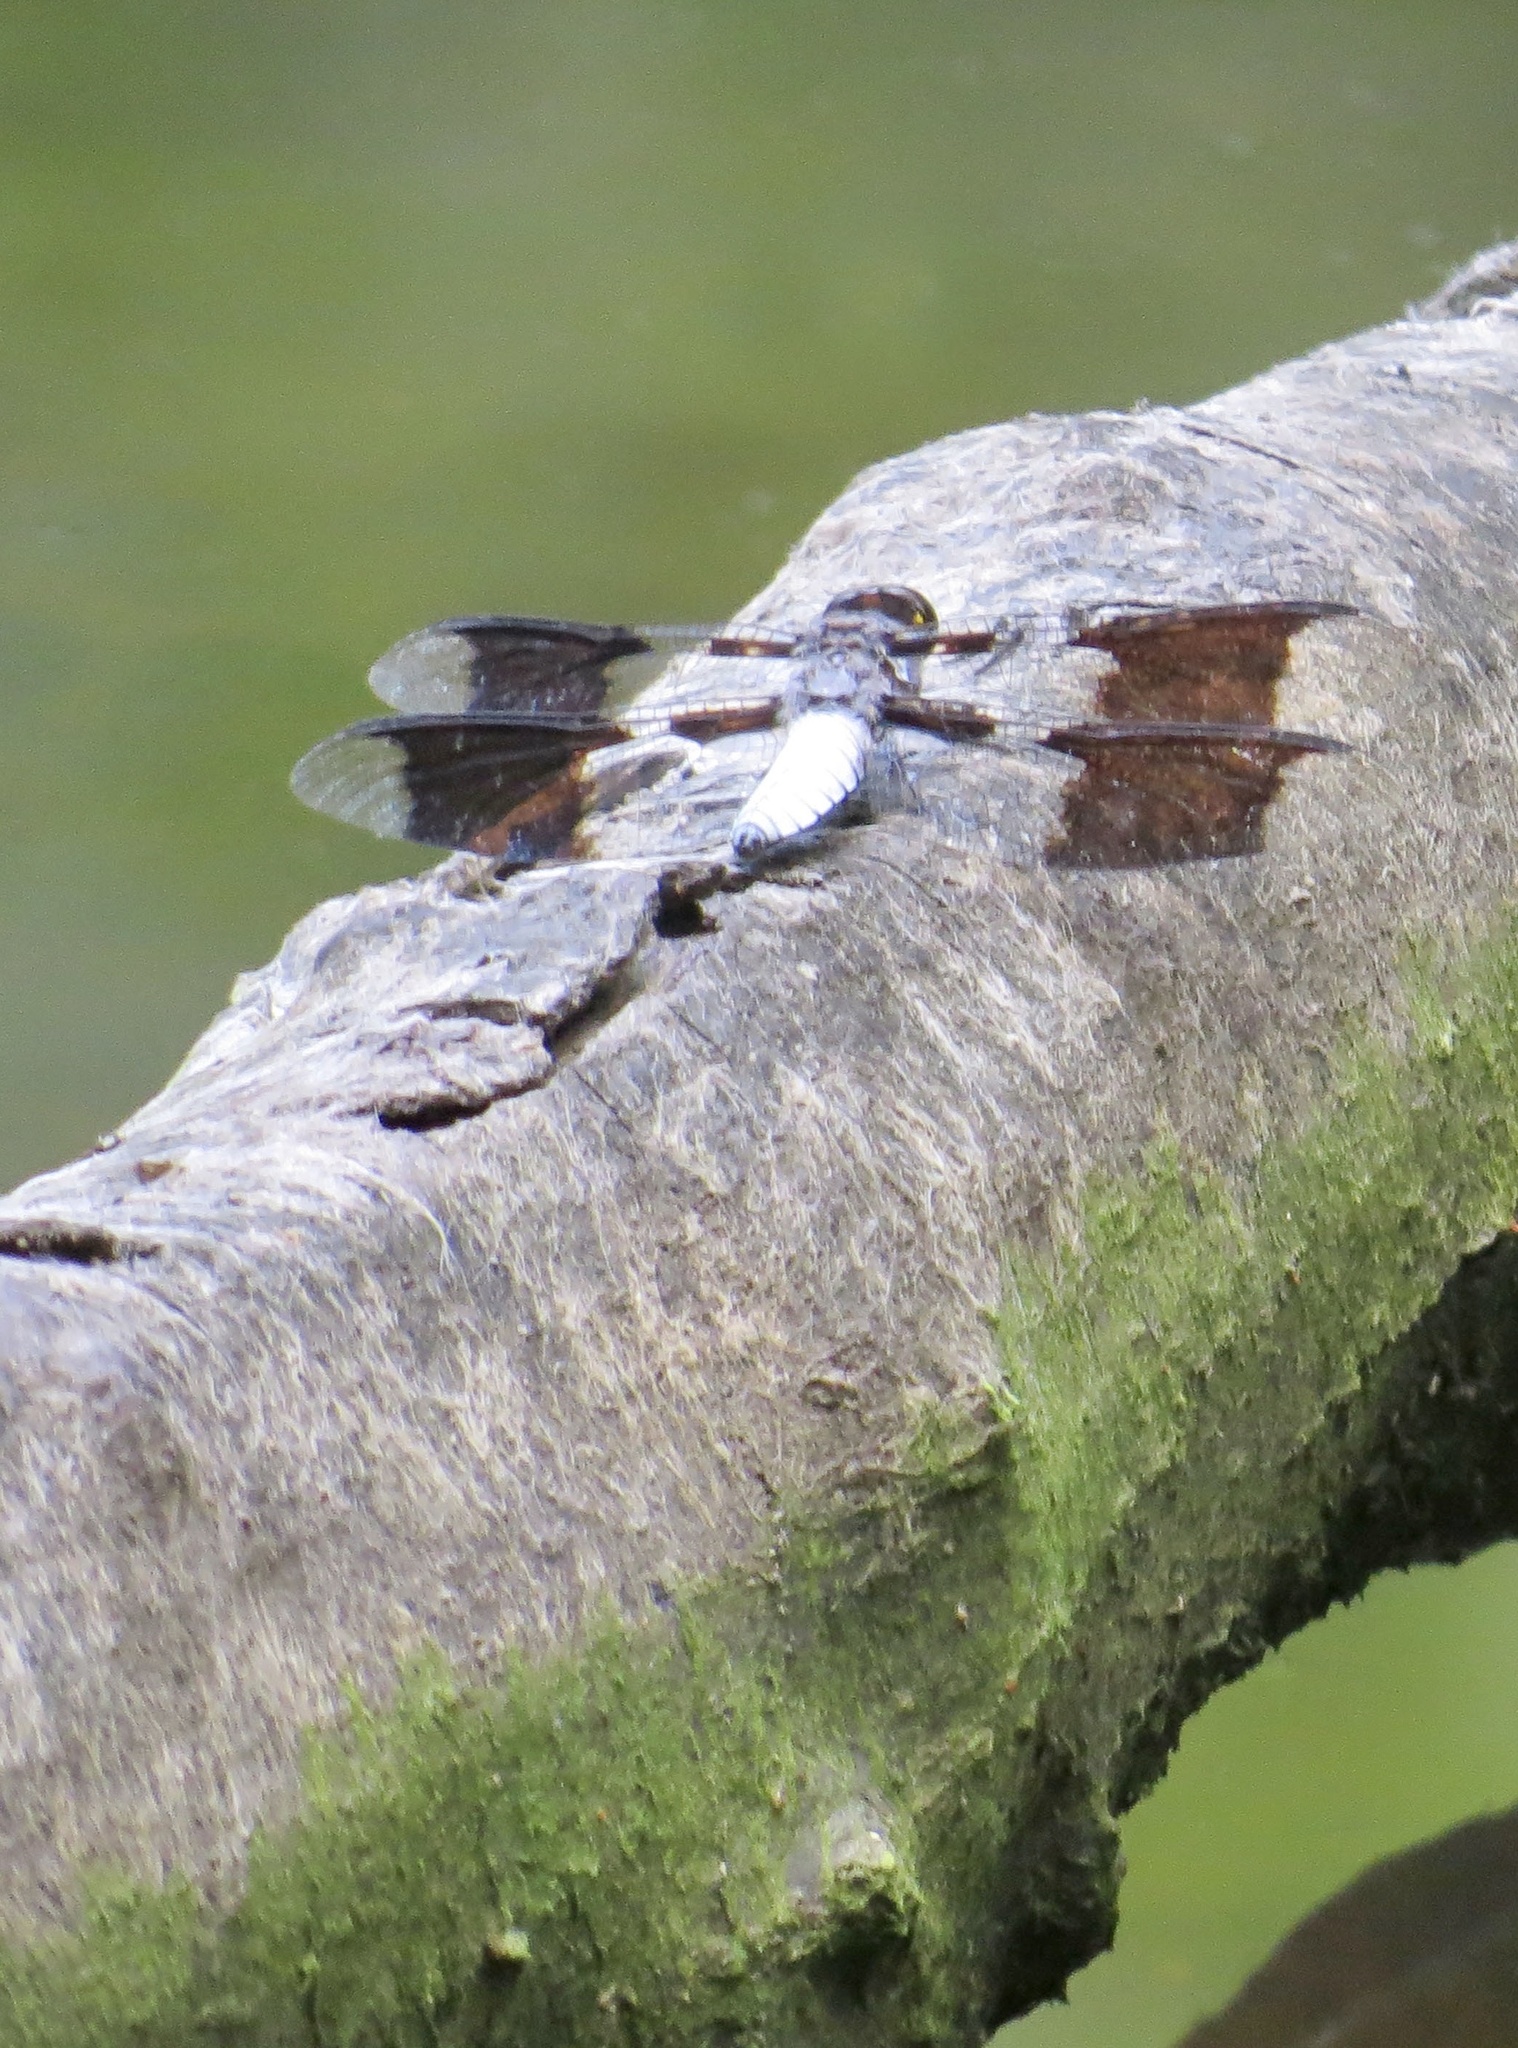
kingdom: Animalia
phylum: Arthropoda
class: Insecta
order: Odonata
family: Libellulidae
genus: Plathemis
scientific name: Plathemis lydia
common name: Common whitetail
